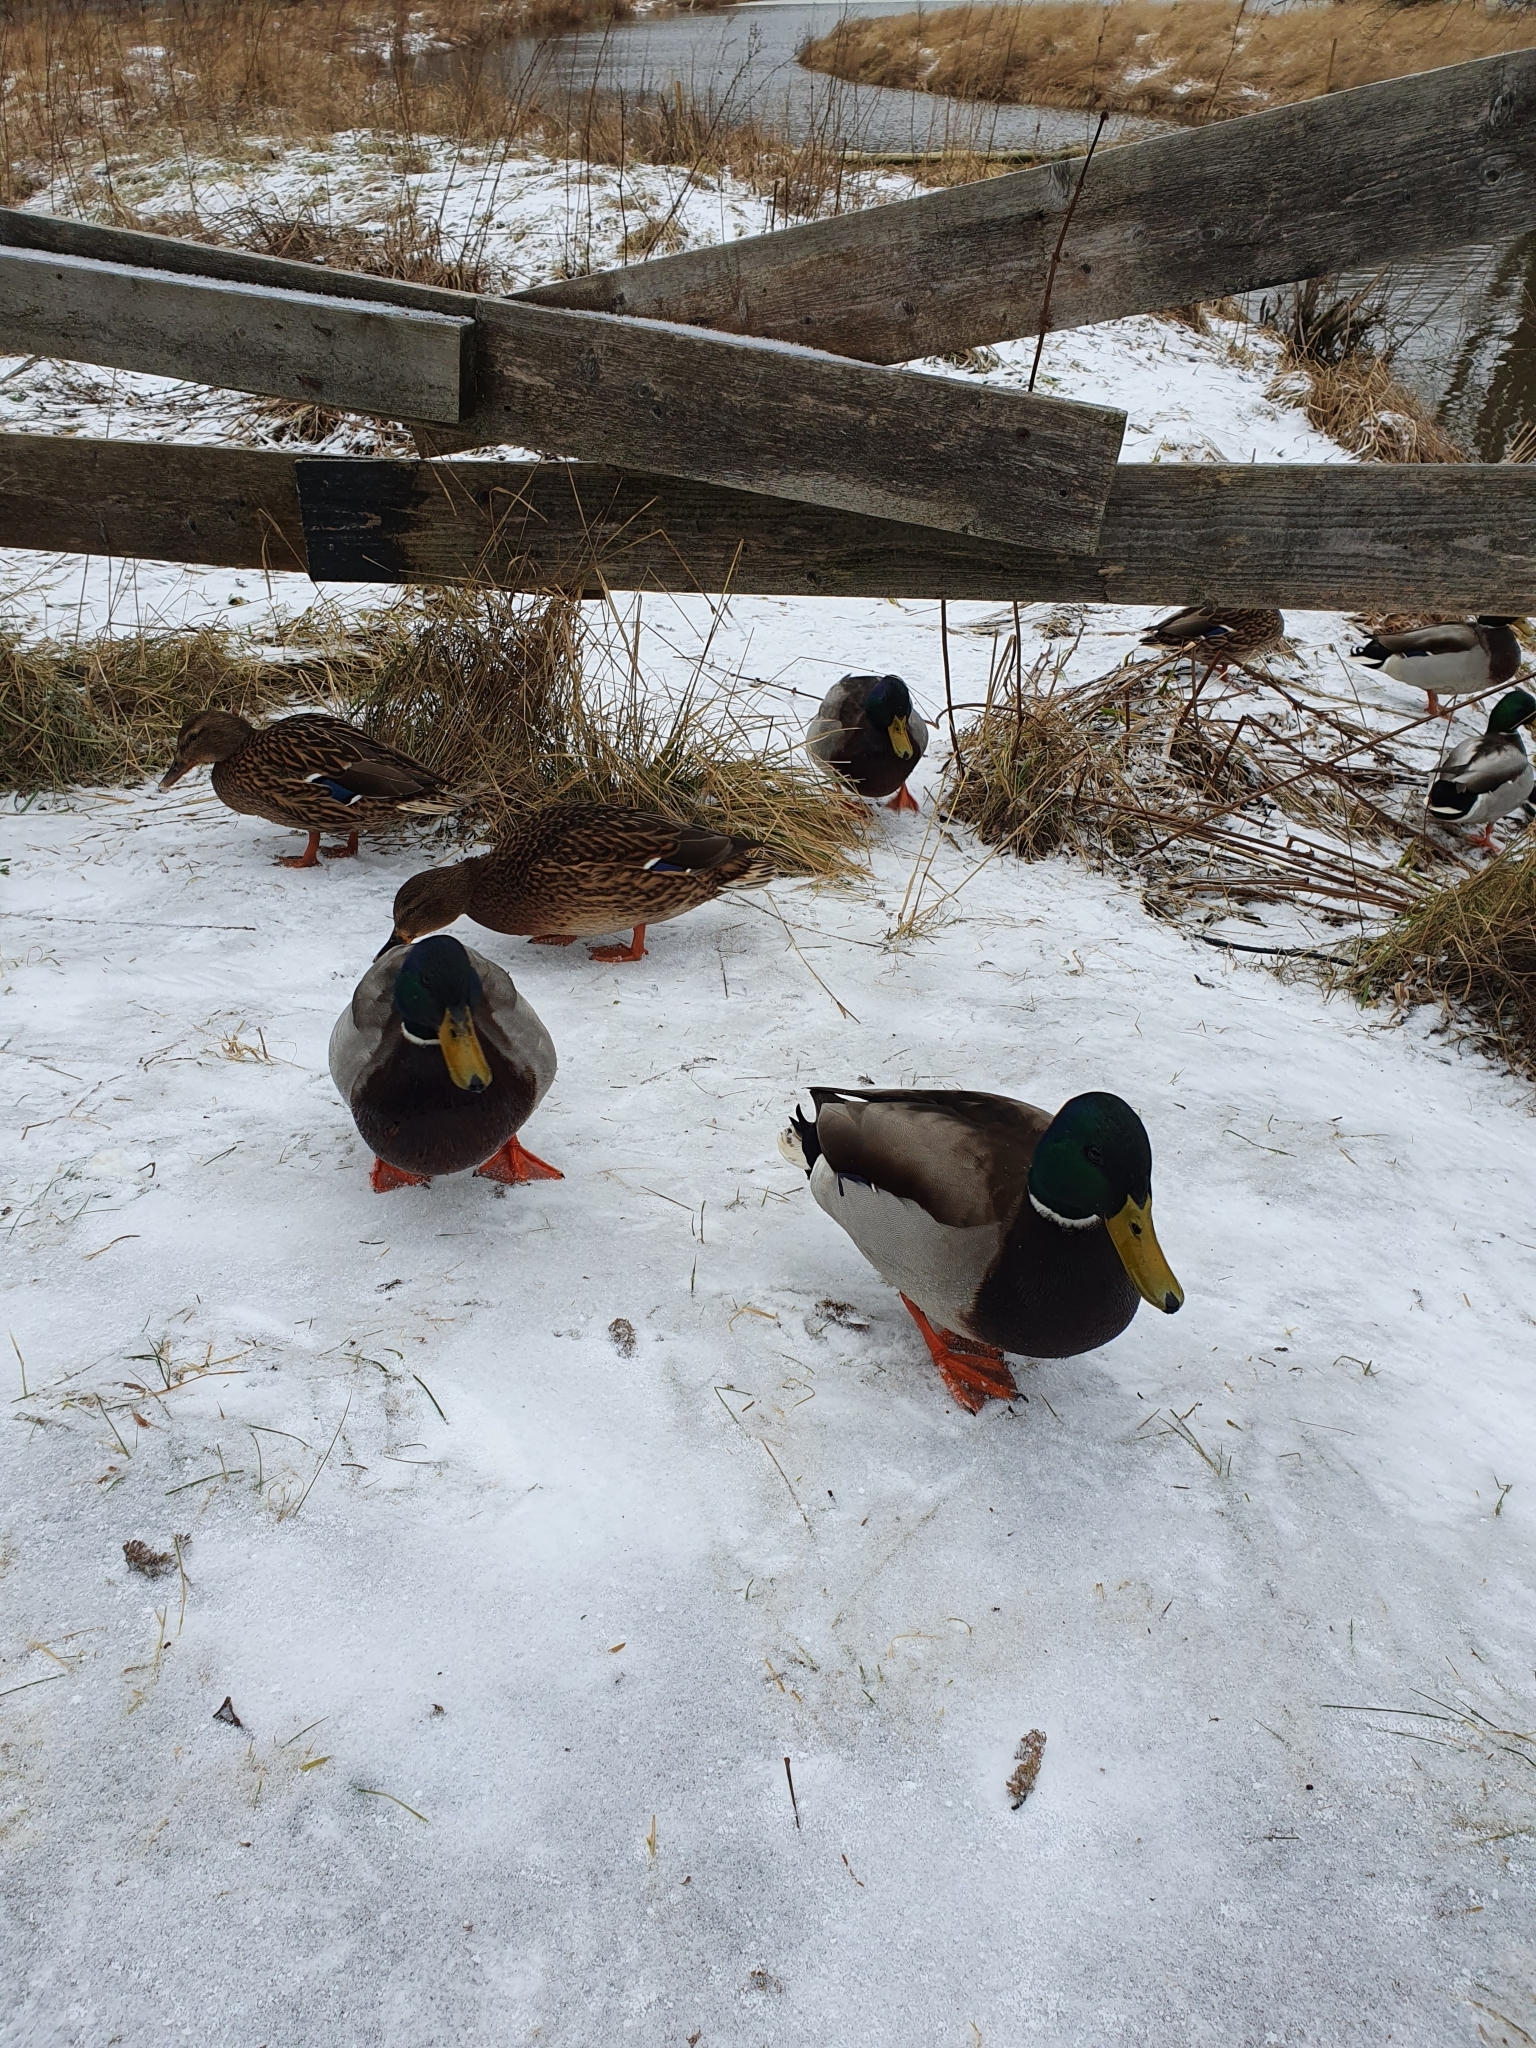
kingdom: Animalia
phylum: Chordata
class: Aves
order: Anseriformes
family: Anatidae
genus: Anas
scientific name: Anas platyrhynchos
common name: Mallard
